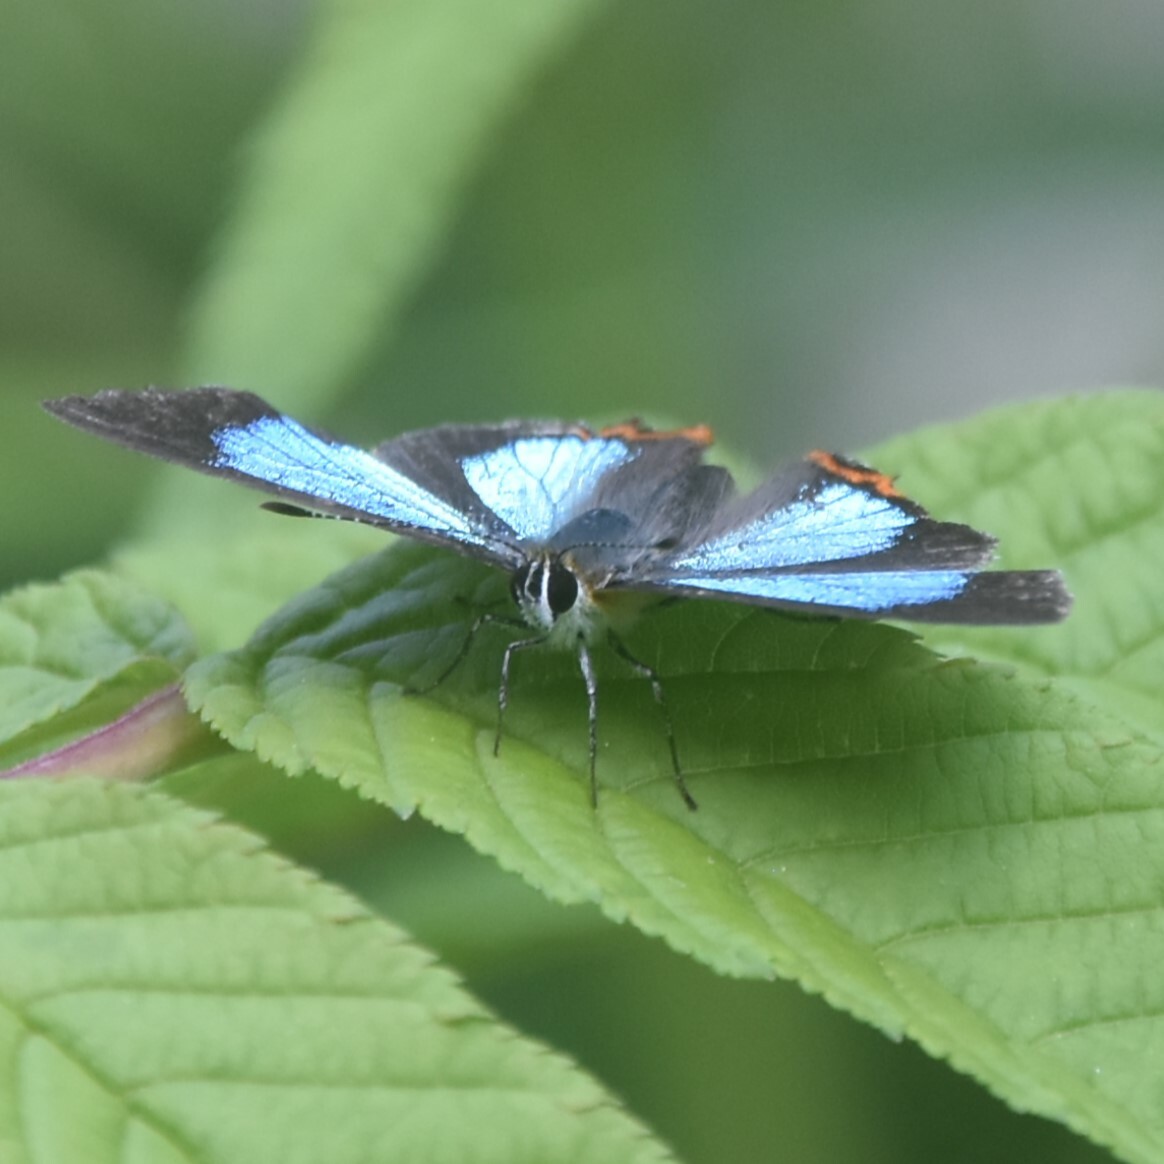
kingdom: Animalia
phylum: Arthropoda
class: Insecta
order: Lepidoptera
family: Lycaenidae
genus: Heliophorus
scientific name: Heliophorus
